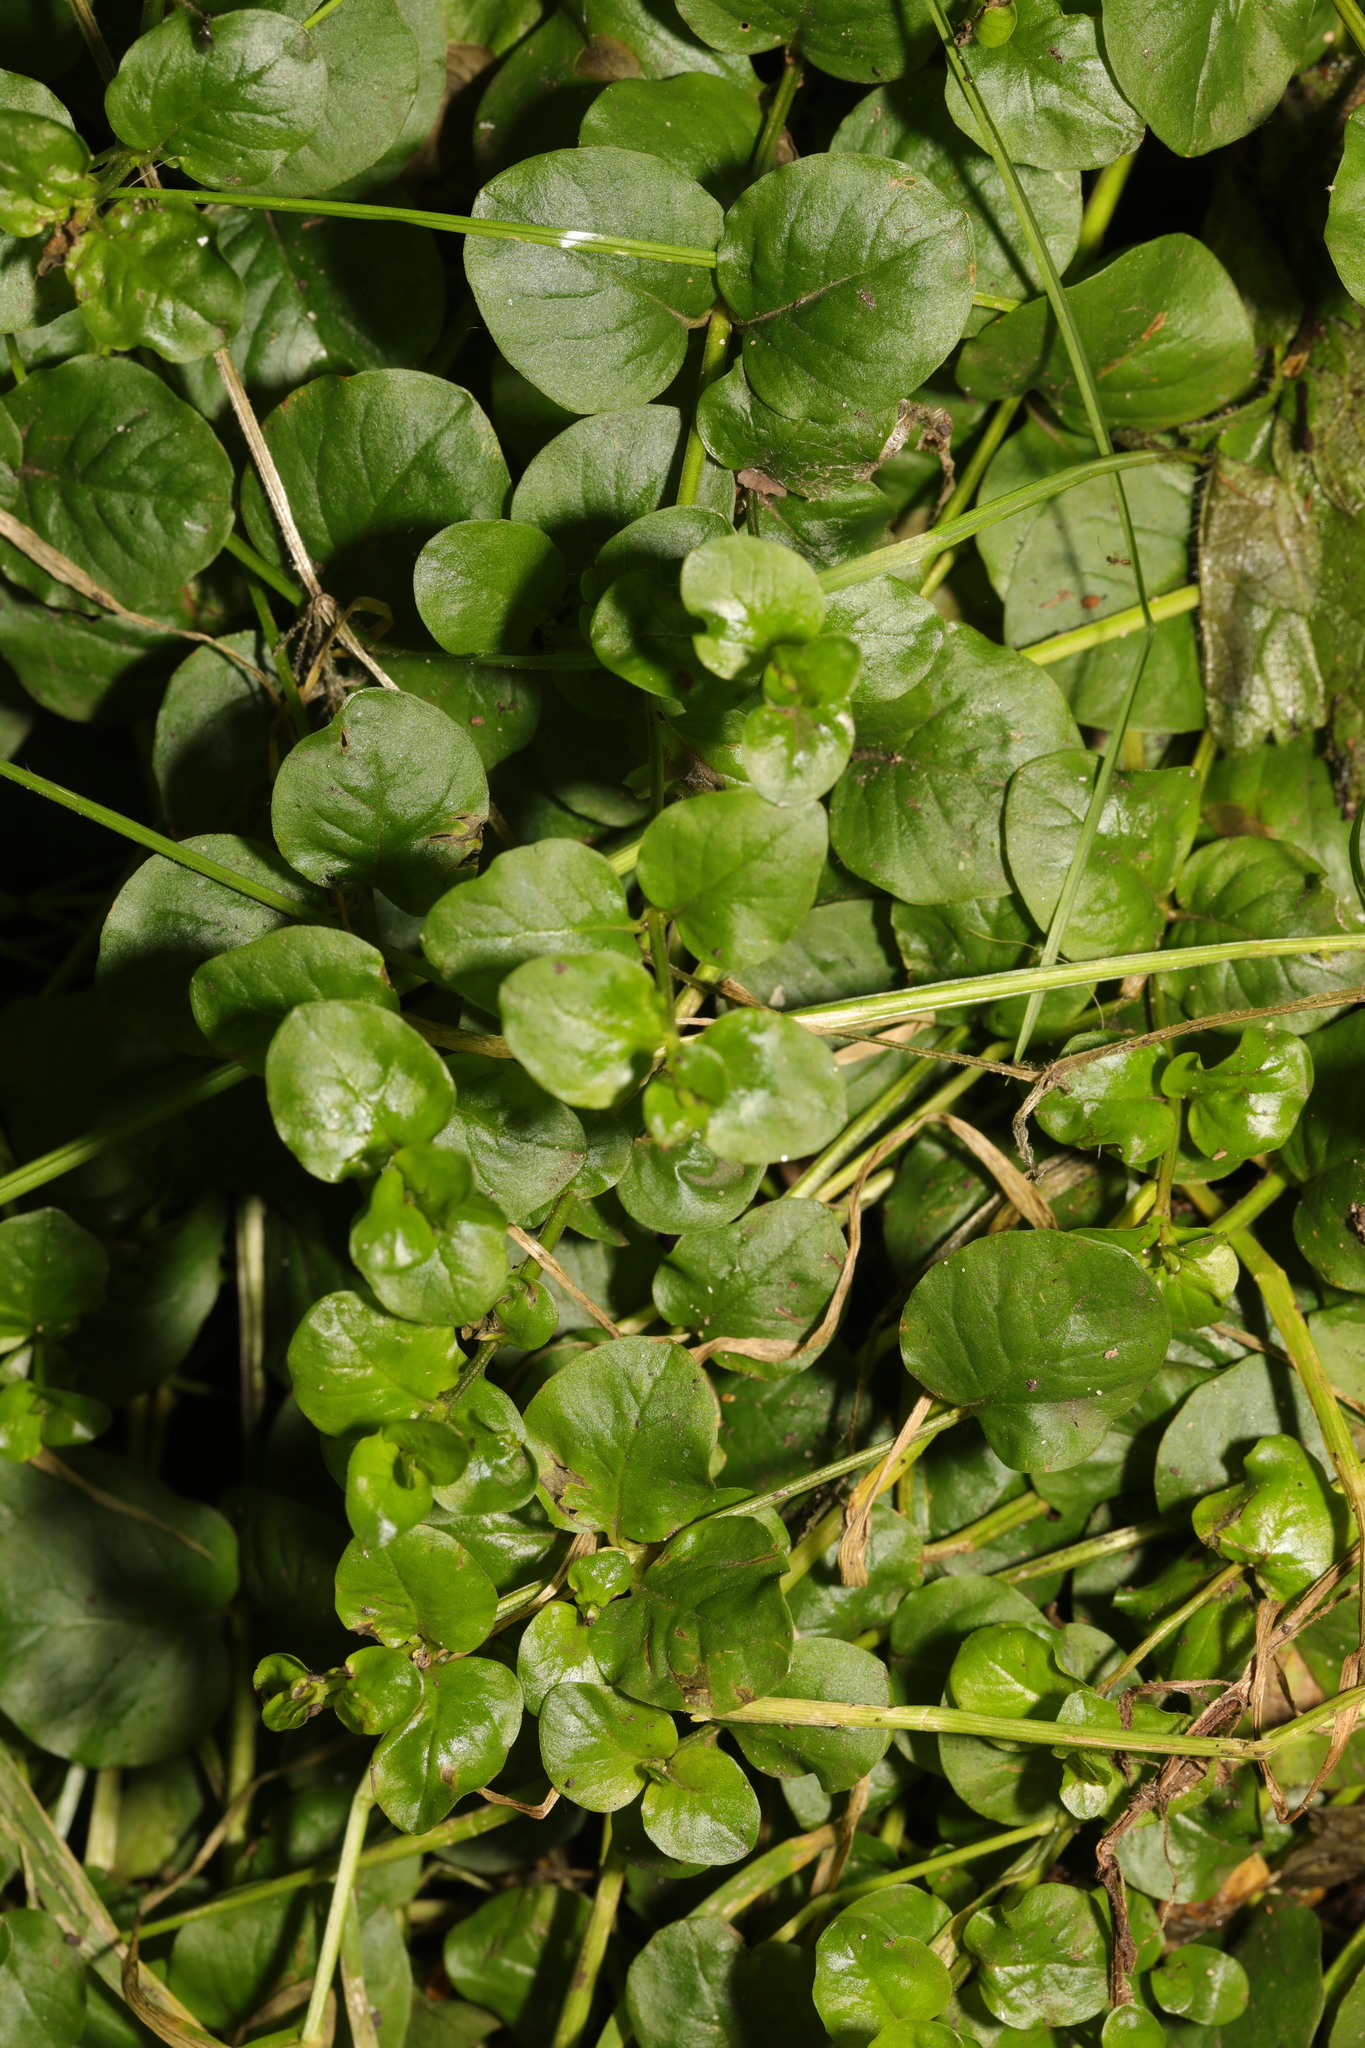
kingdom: Plantae
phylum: Tracheophyta
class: Magnoliopsida
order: Ericales
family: Primulaceae
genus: Lysimachia
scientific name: Lysimachia nummularia
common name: Moneywort
